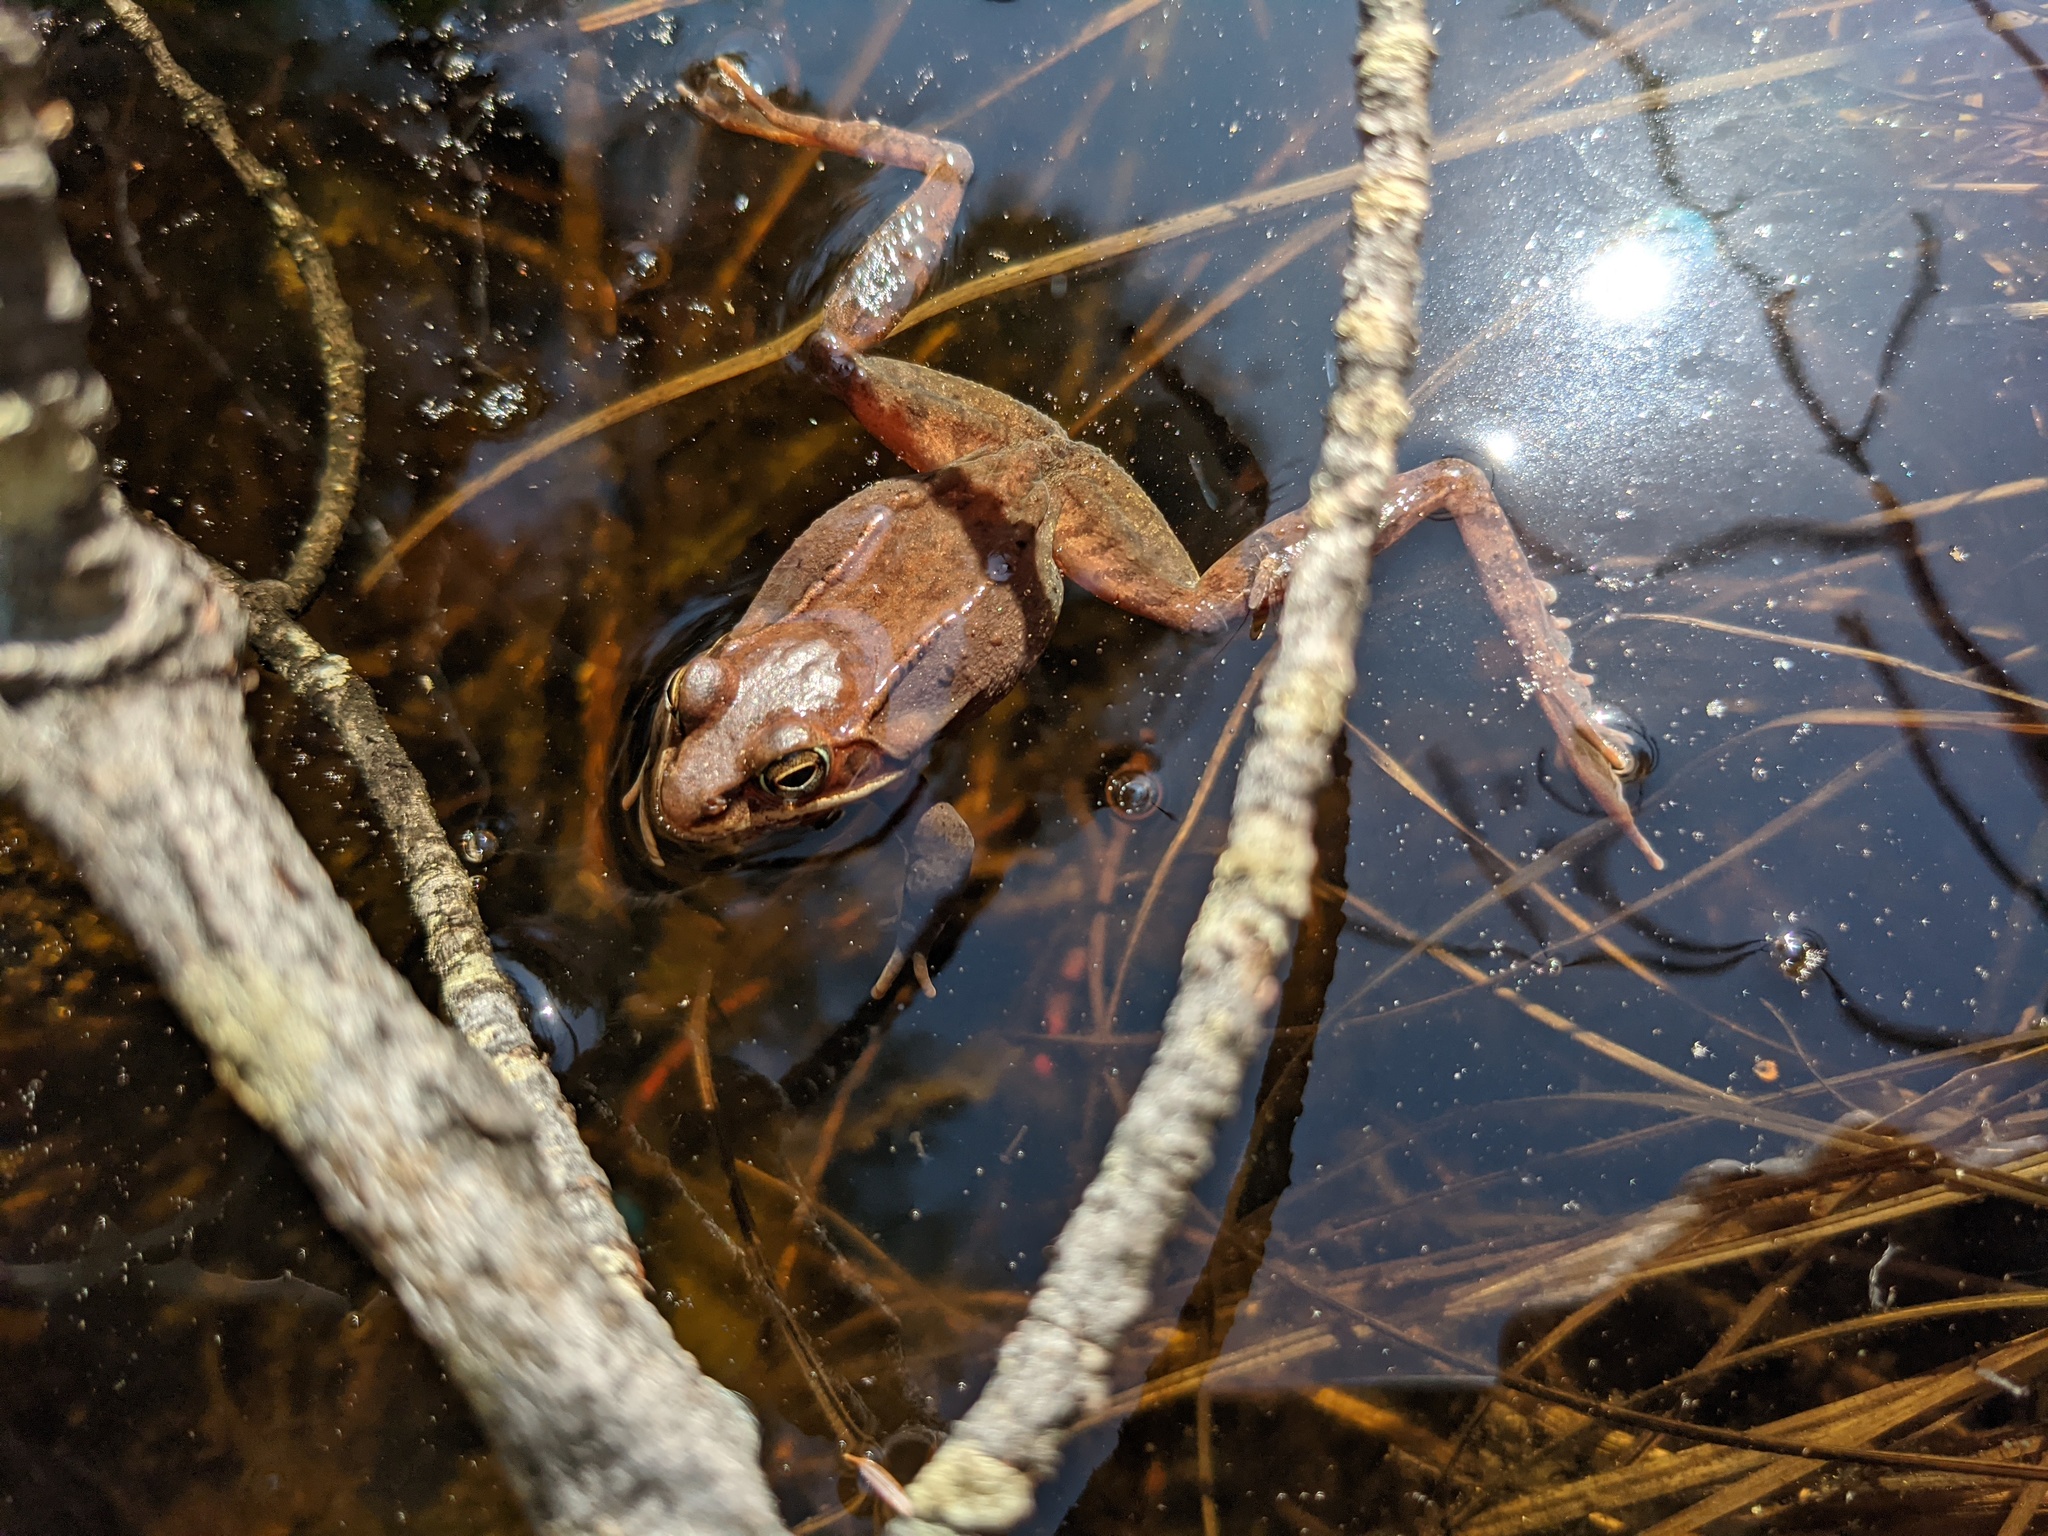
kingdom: Animalia
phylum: Chordata
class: Amphibia
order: Anura
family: Ranidae
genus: Lithobates
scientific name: Lithobates sylvaticus
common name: Wood frog
